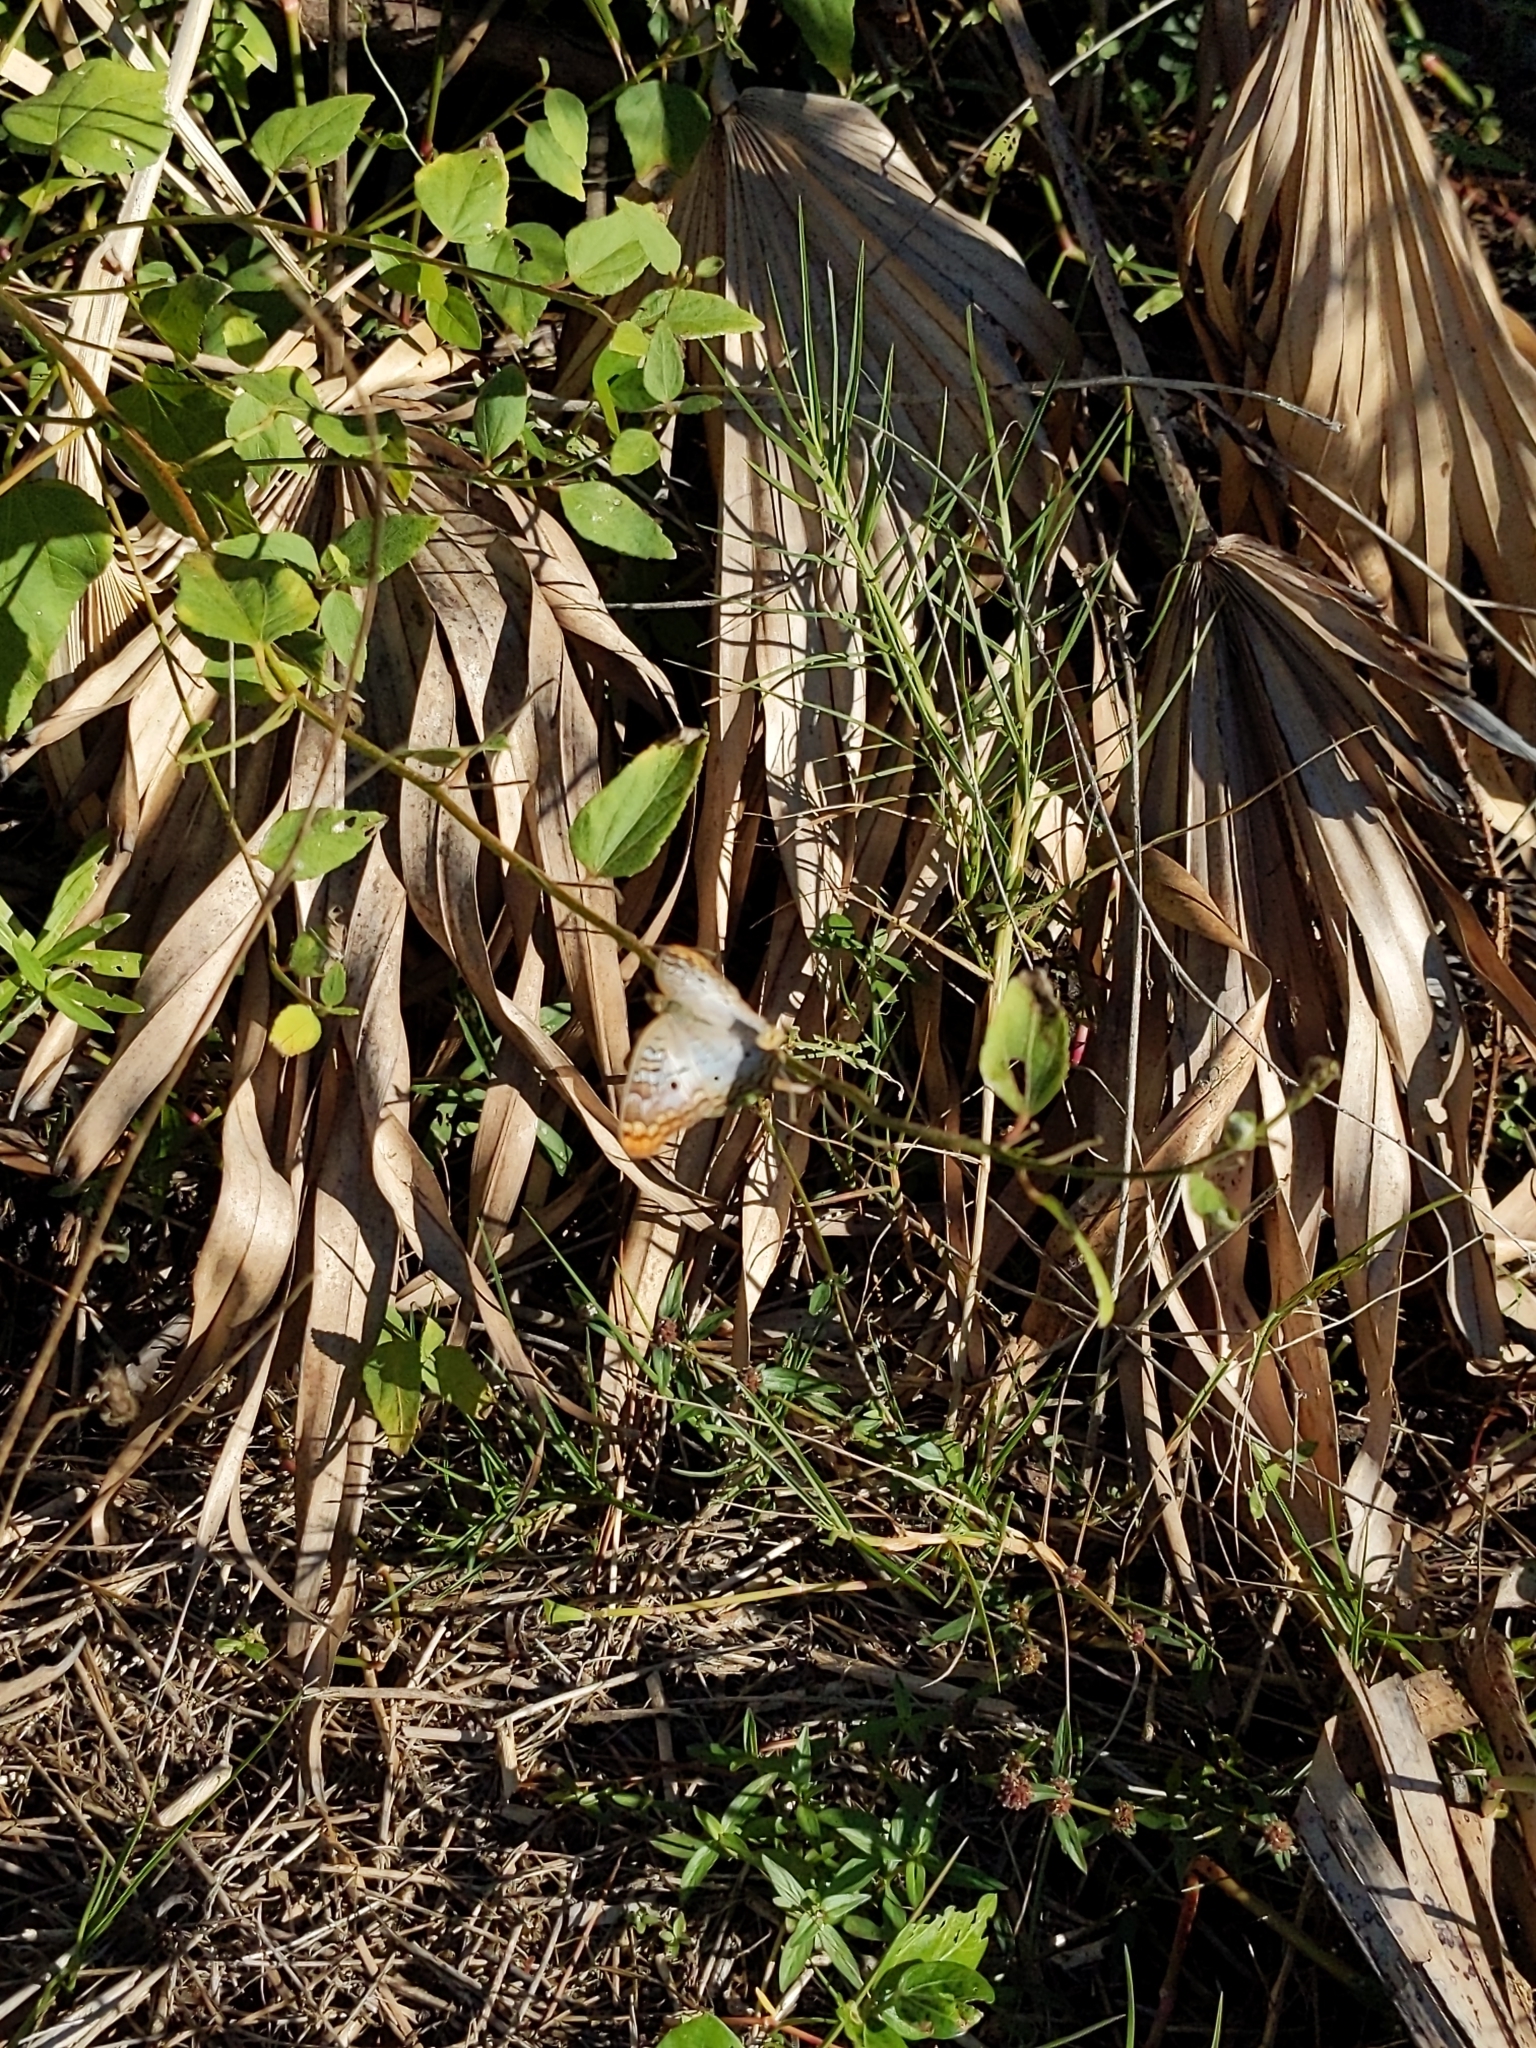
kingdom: Animalia
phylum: Arthropoda
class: Insecta
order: Lepidoptera
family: Nymphalidae
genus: Anartia
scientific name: Anartia jatrophae
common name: White peacock
